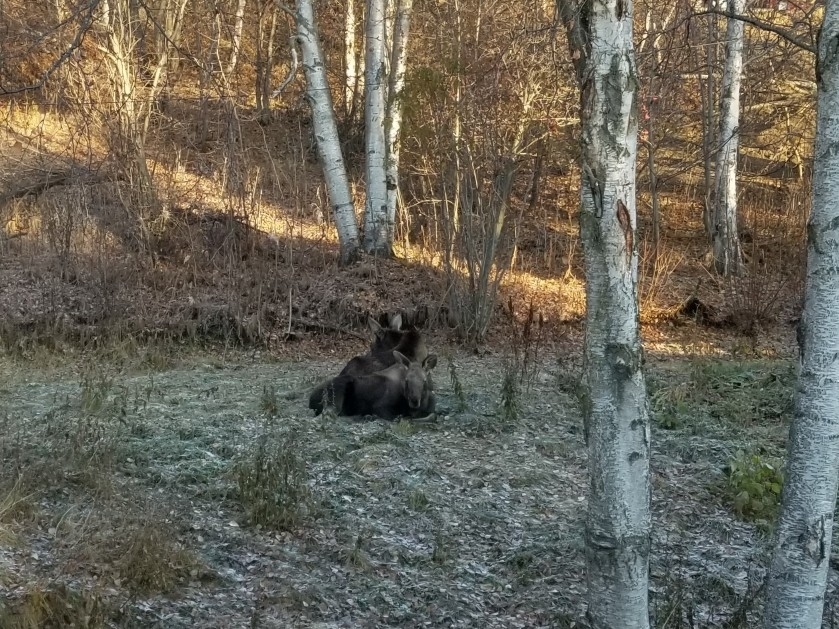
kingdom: Animalia
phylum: Chordata
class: Mammalia
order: Artiodactyla
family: Cervidae
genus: Alces
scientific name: Alces alces
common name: Moose
